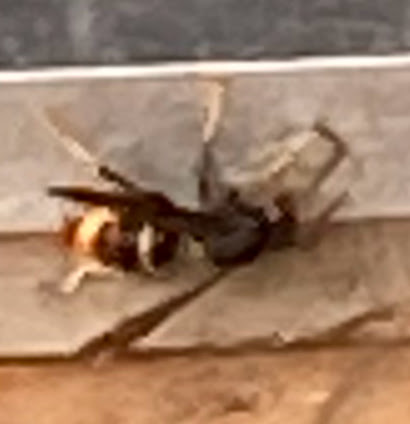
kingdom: Animalia
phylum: Arthropoda
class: Insecta
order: Hymenoptera
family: Vespidae
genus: Vespa
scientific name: Vespa velutina
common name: Asian hornet
